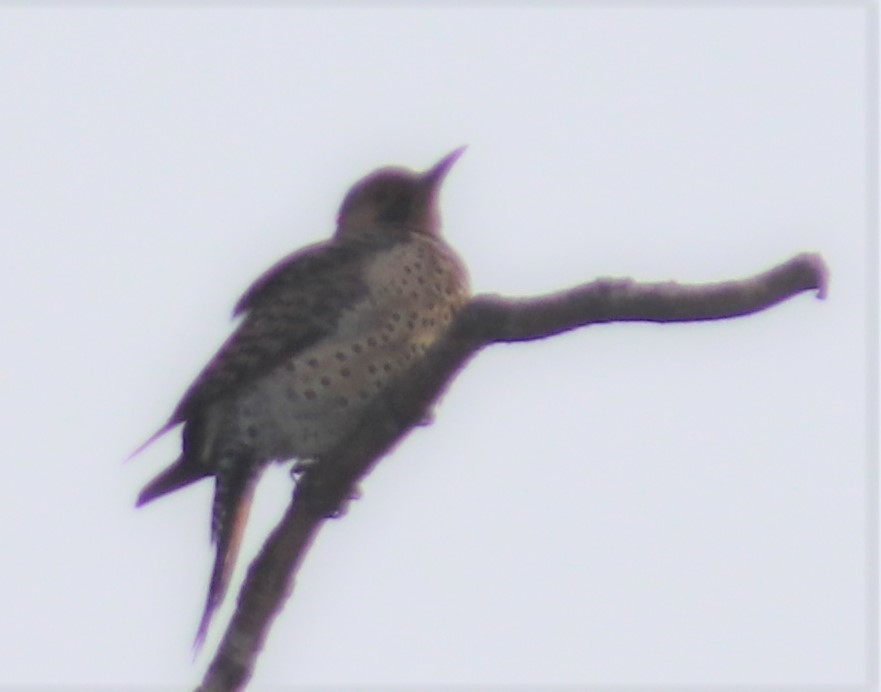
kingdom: Animalia
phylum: Chordata
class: Aves
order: Piciformes
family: Picidae
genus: Colaptes
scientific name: Colaptes auratus
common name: Northern flicker
